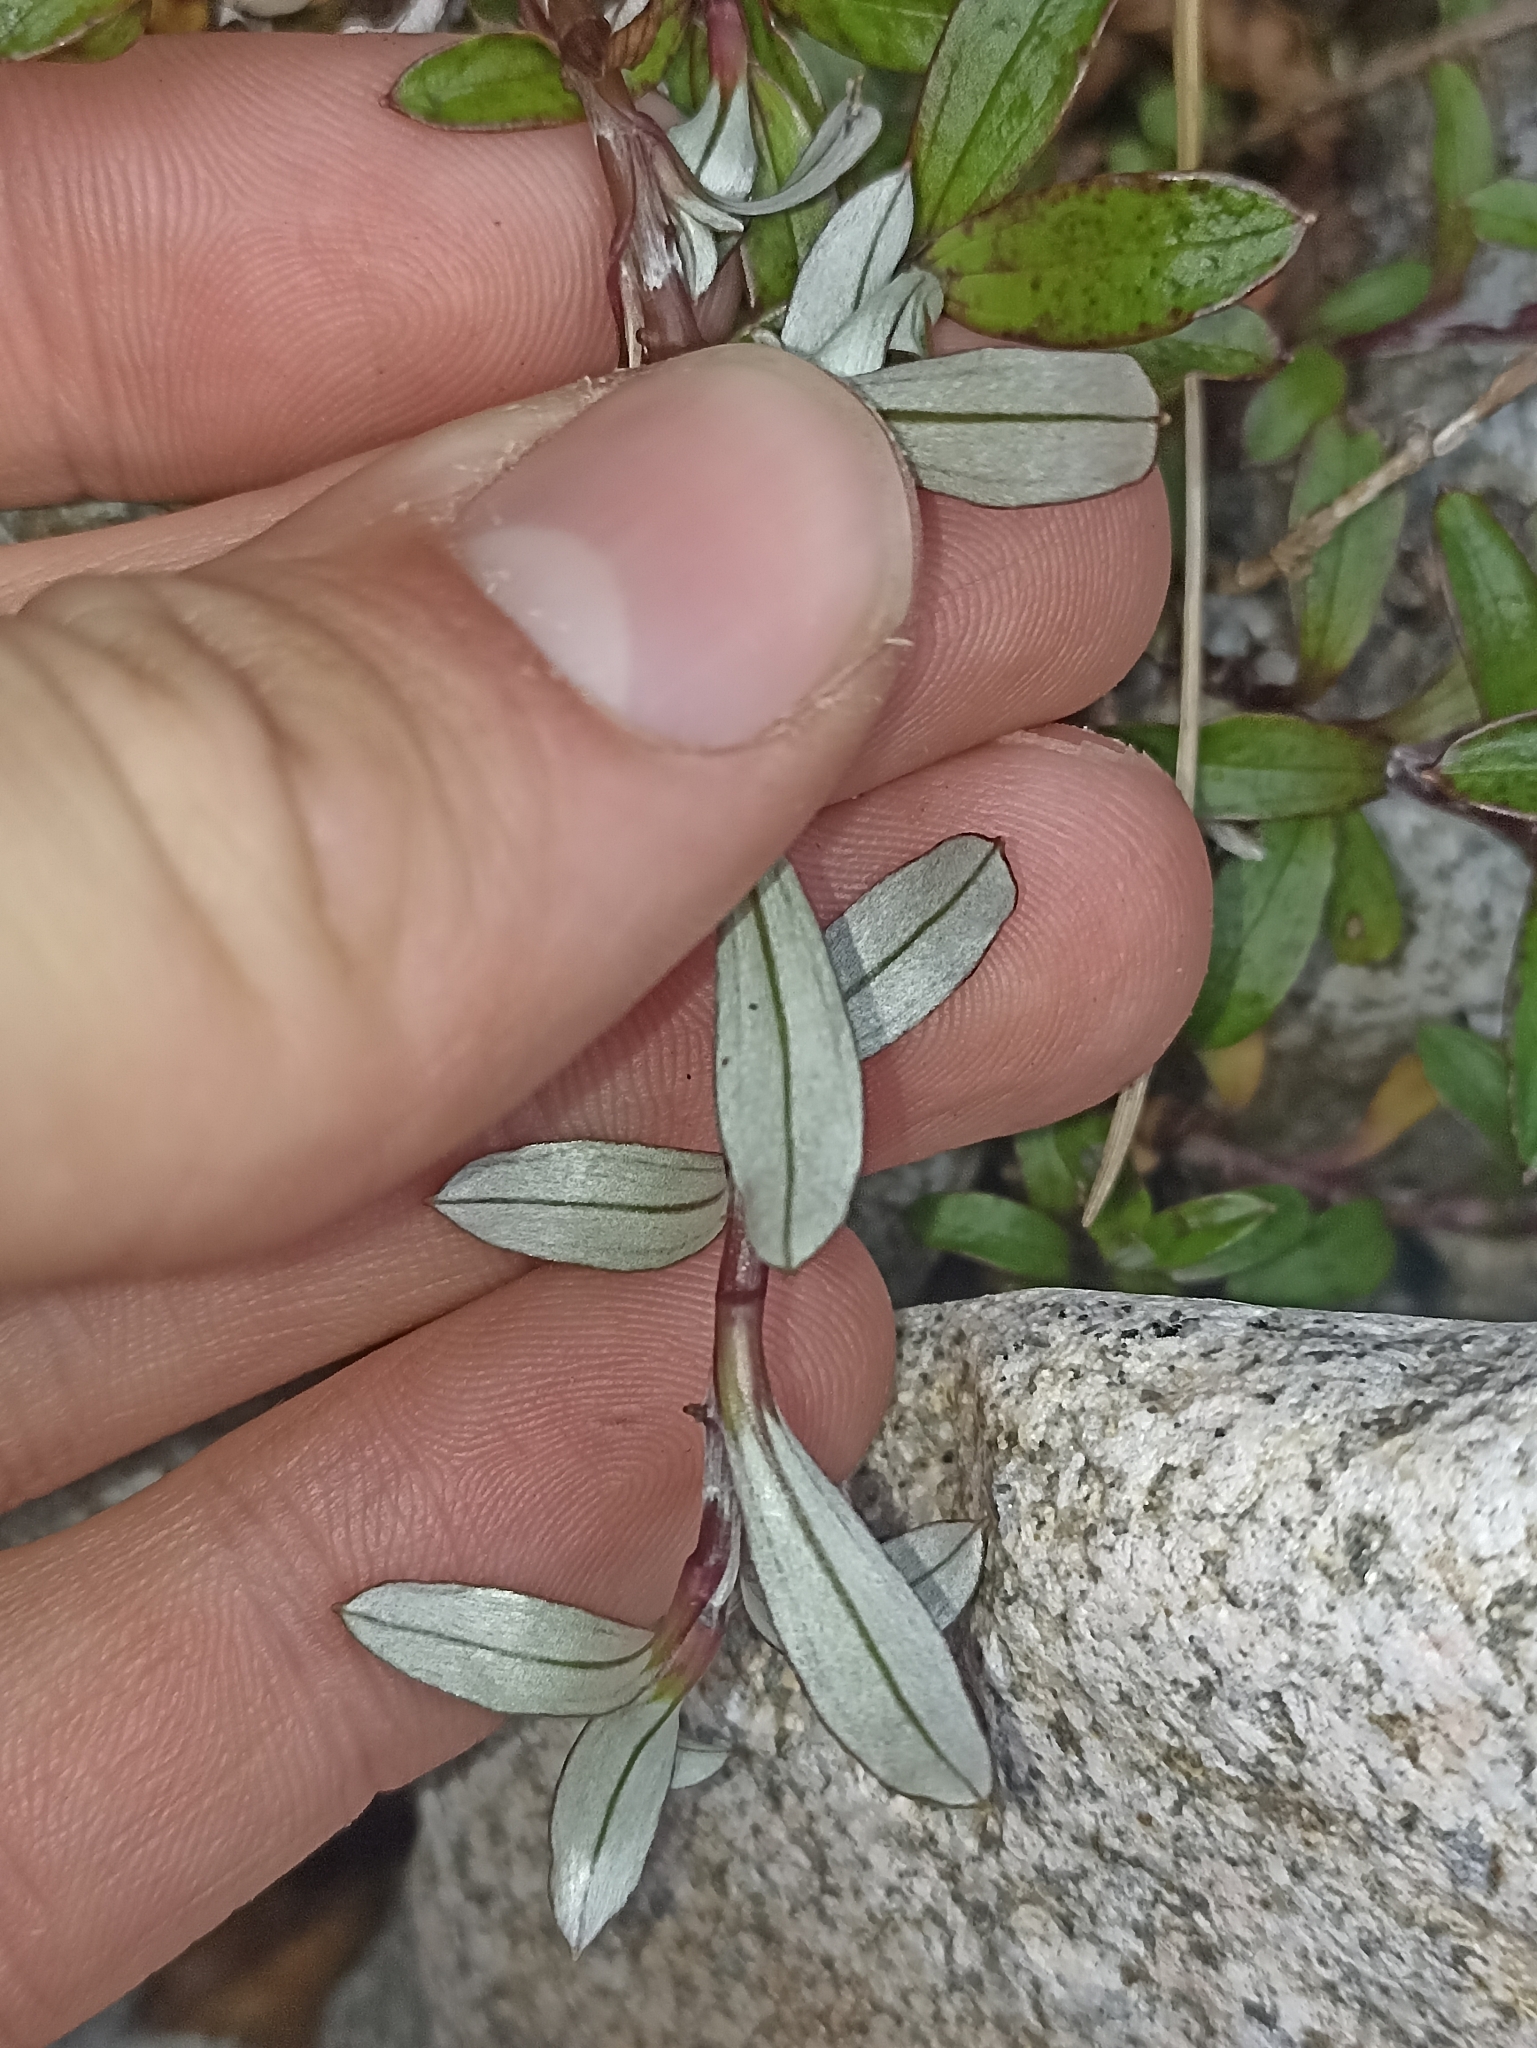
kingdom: Plantae
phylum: Tracheophyta
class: Magnoliopsida
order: Asterales
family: Asteraceae
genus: Anaphalioides
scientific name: Anaphalioides trinervis
